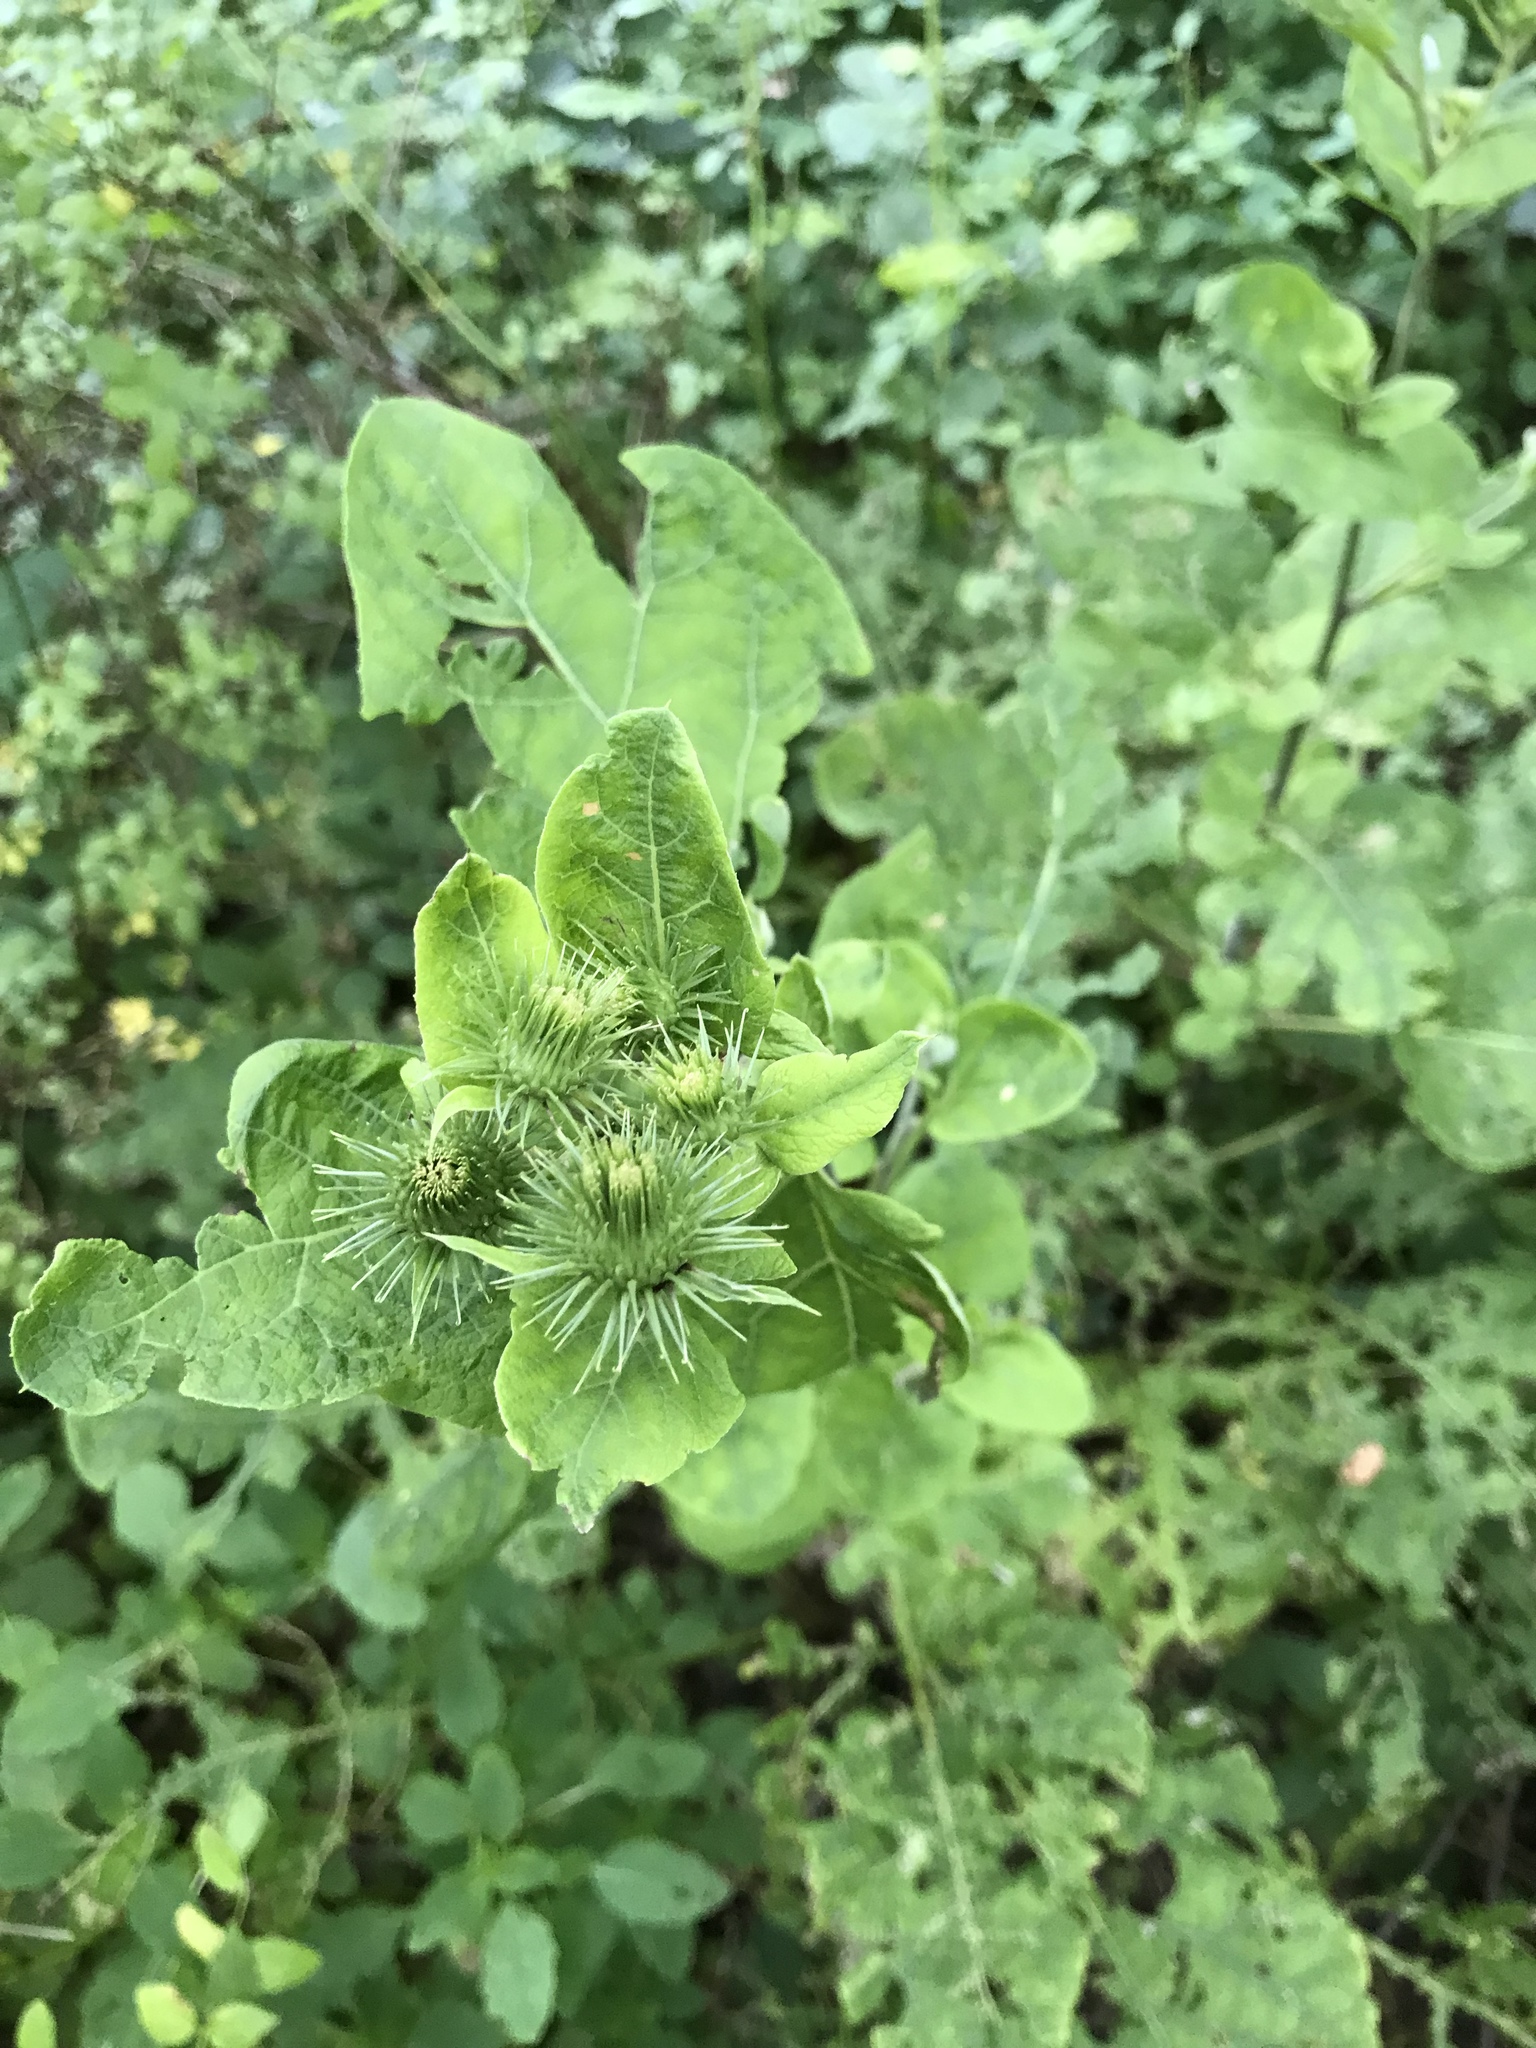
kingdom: Plantae
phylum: Tracheophyta
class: Magnoliopsida
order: Asterales
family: Asteraceae
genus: Arctium
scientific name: Arctium minus
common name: Lesser burdock
